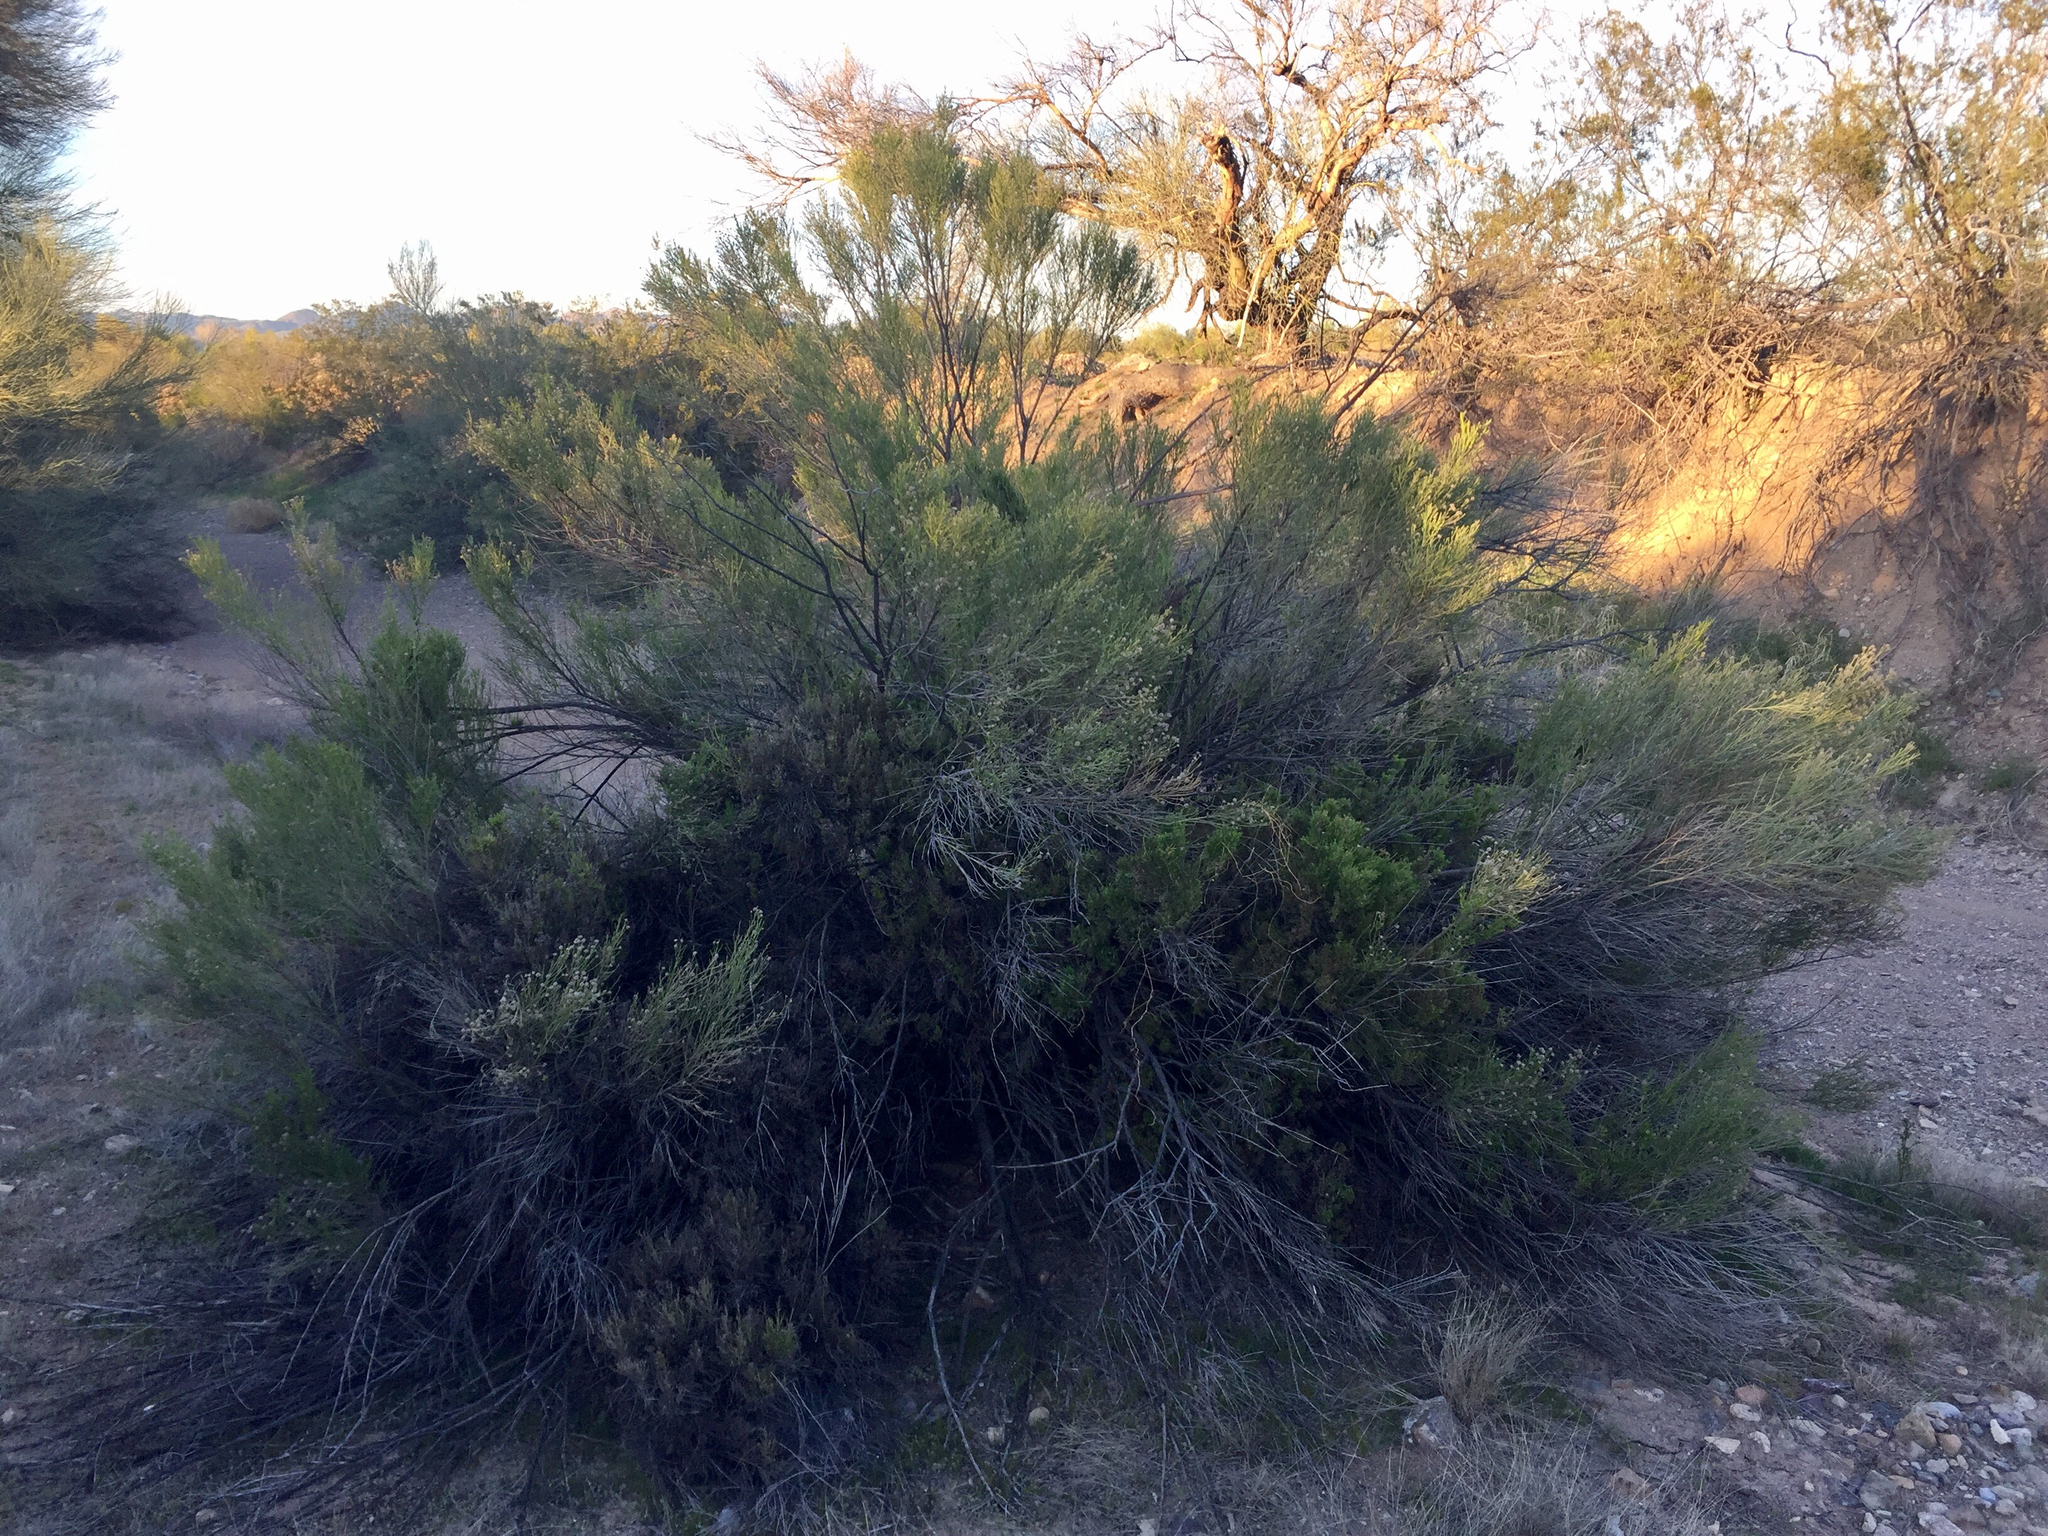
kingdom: Plantae
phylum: Tracheophyta
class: Magnoliopsida
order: Asterales
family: Asteraceae
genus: Baccharis
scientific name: Baccharis sarothroides
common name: Desert-broom
